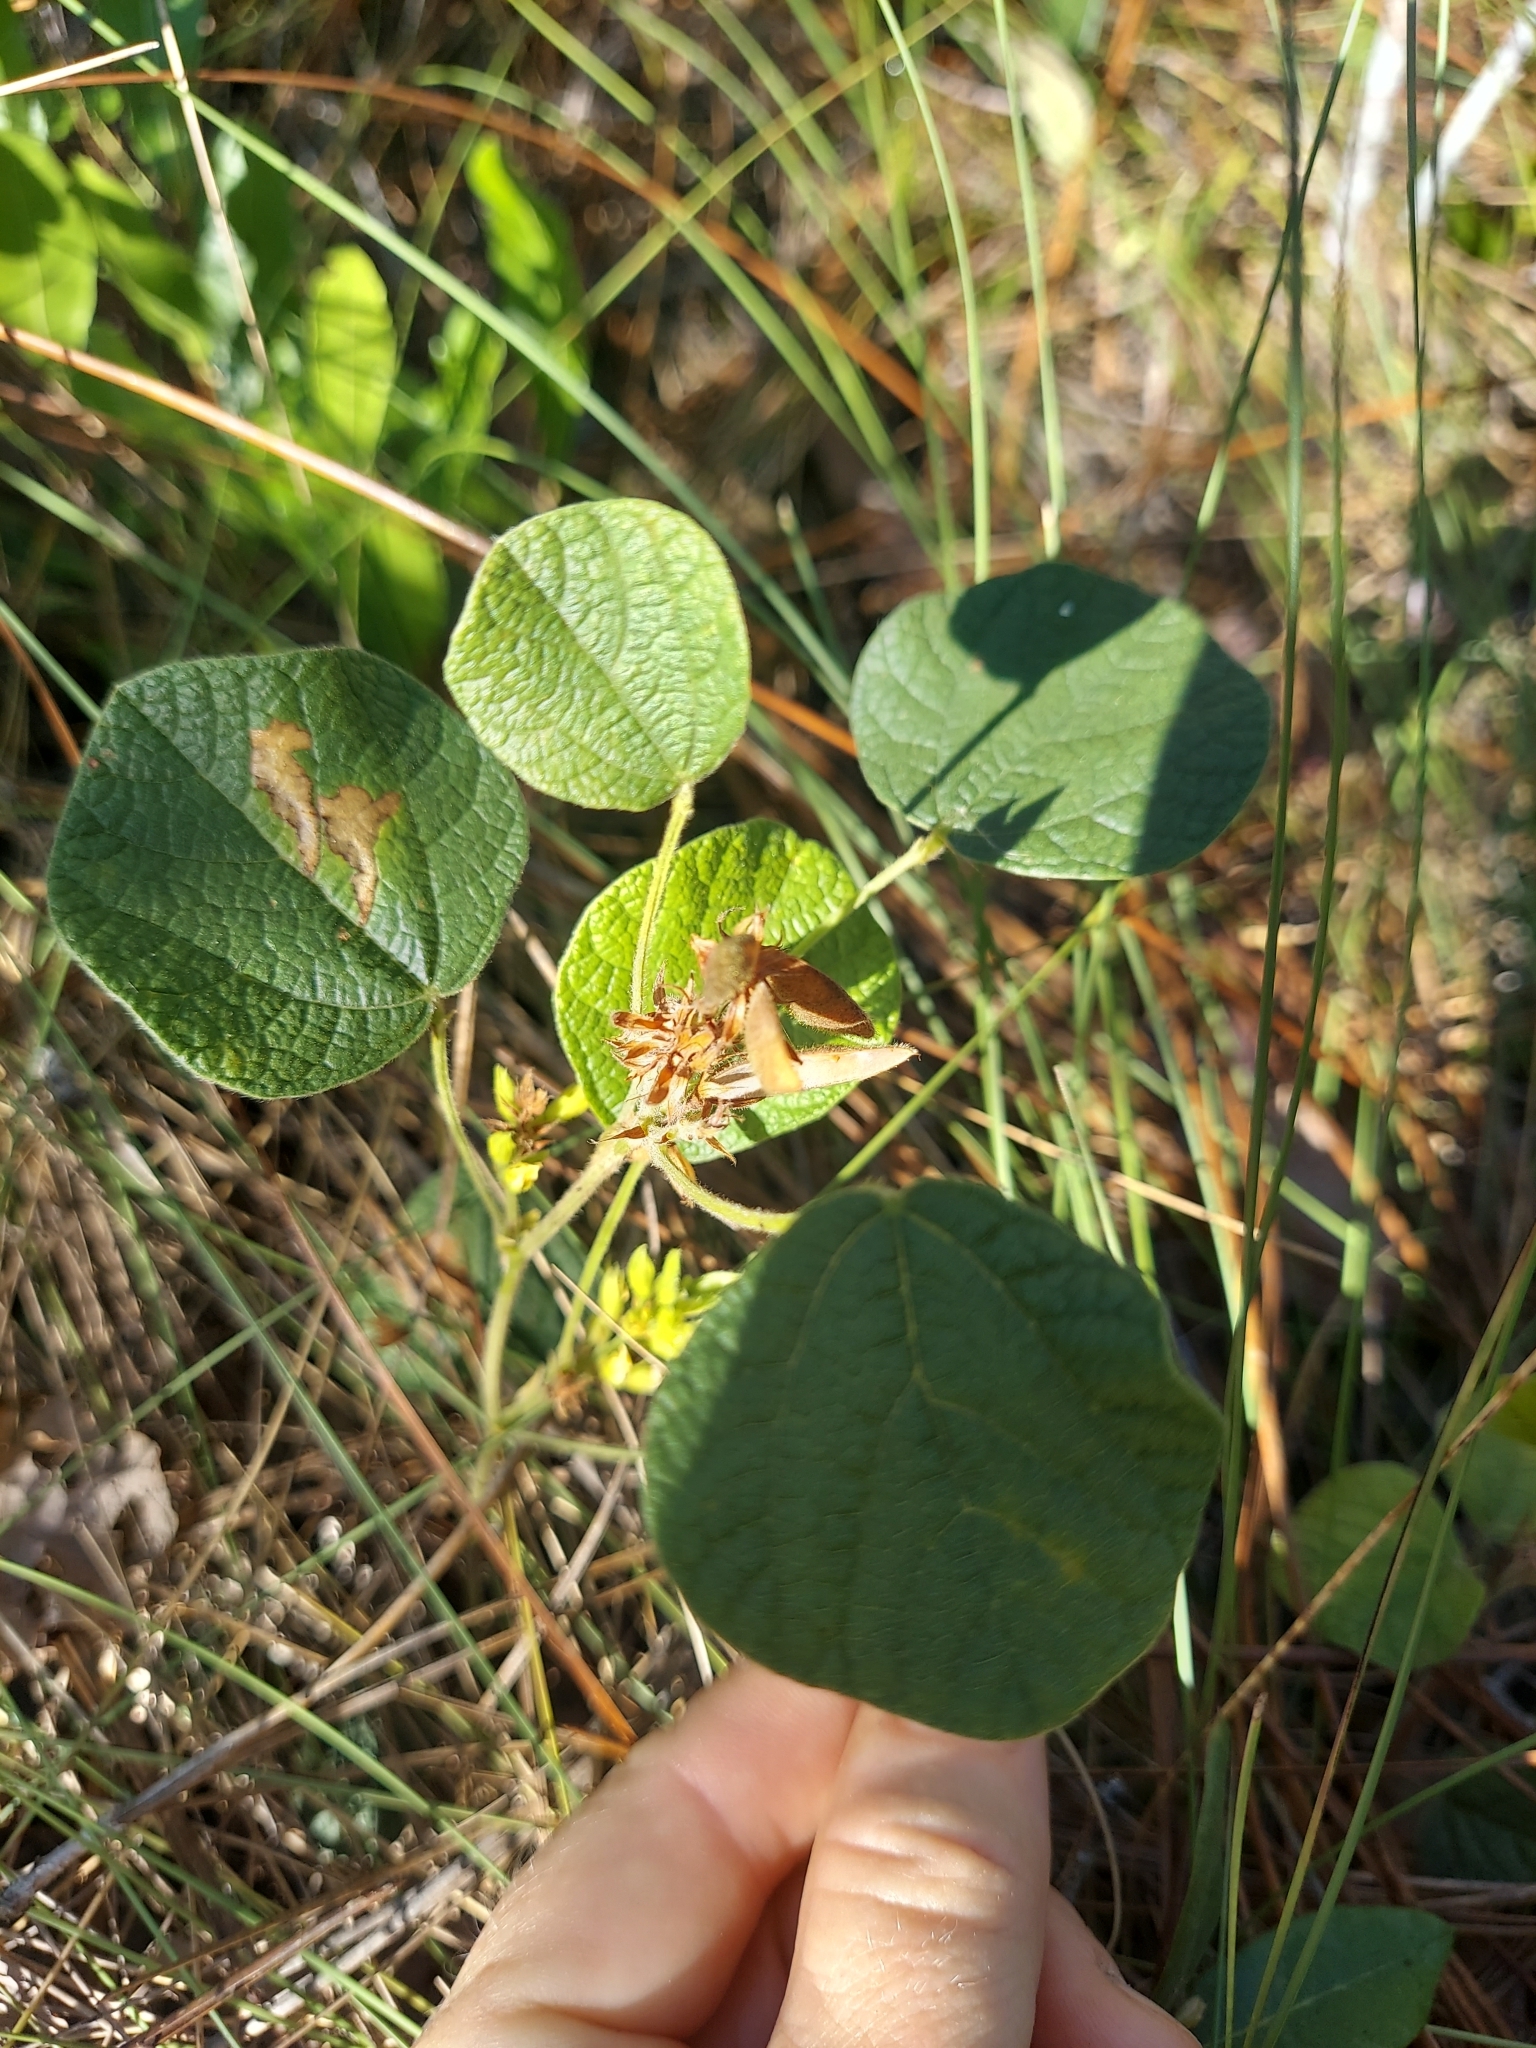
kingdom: Plantae
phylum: Tracheophyta
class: Magnoliopsida
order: Fabales
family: Fabaceae
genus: Rhynchosia
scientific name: Rhynchosia michauxii
